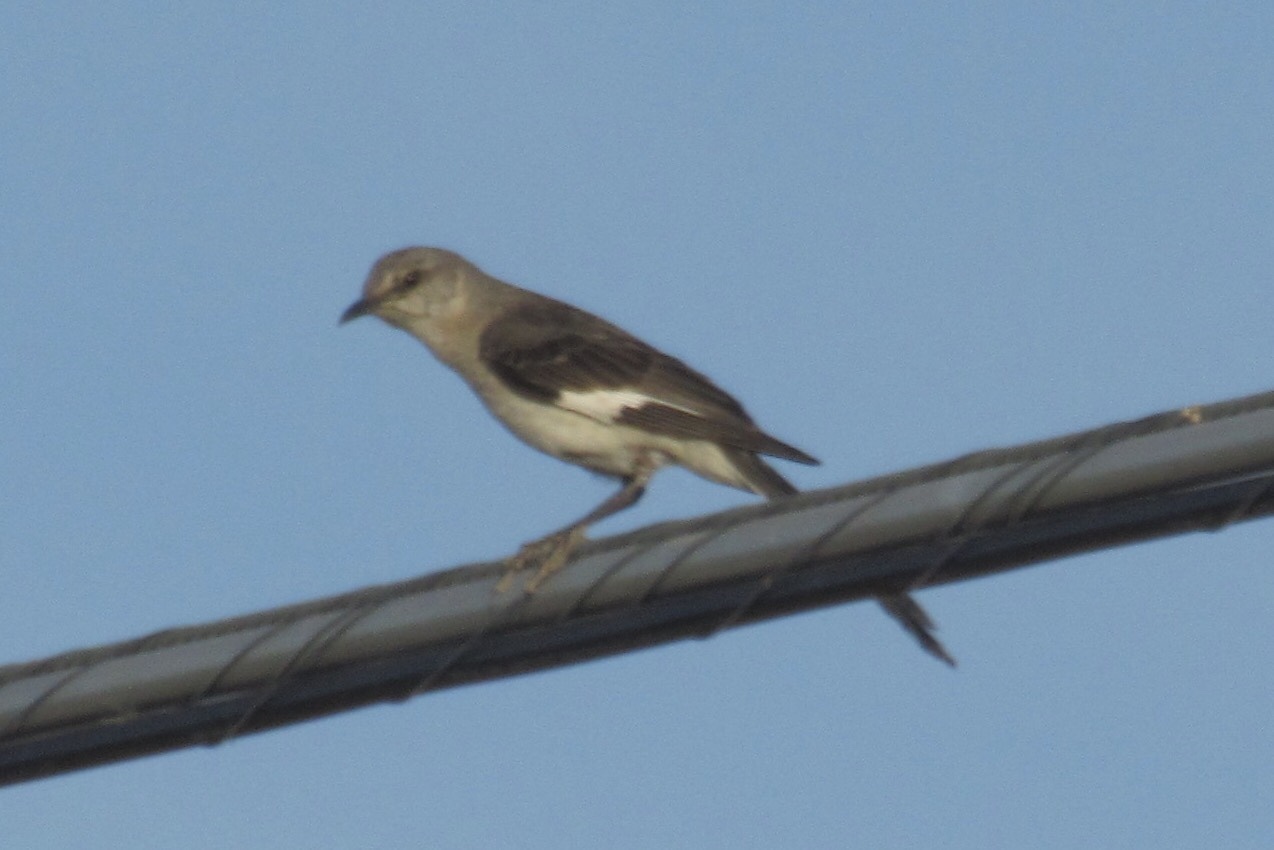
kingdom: Animalia
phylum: Chordata
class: Aves
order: Passeriformes
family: Mimidae
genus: Mimus
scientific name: Mimus polyglottos
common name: Northern mockingbird
